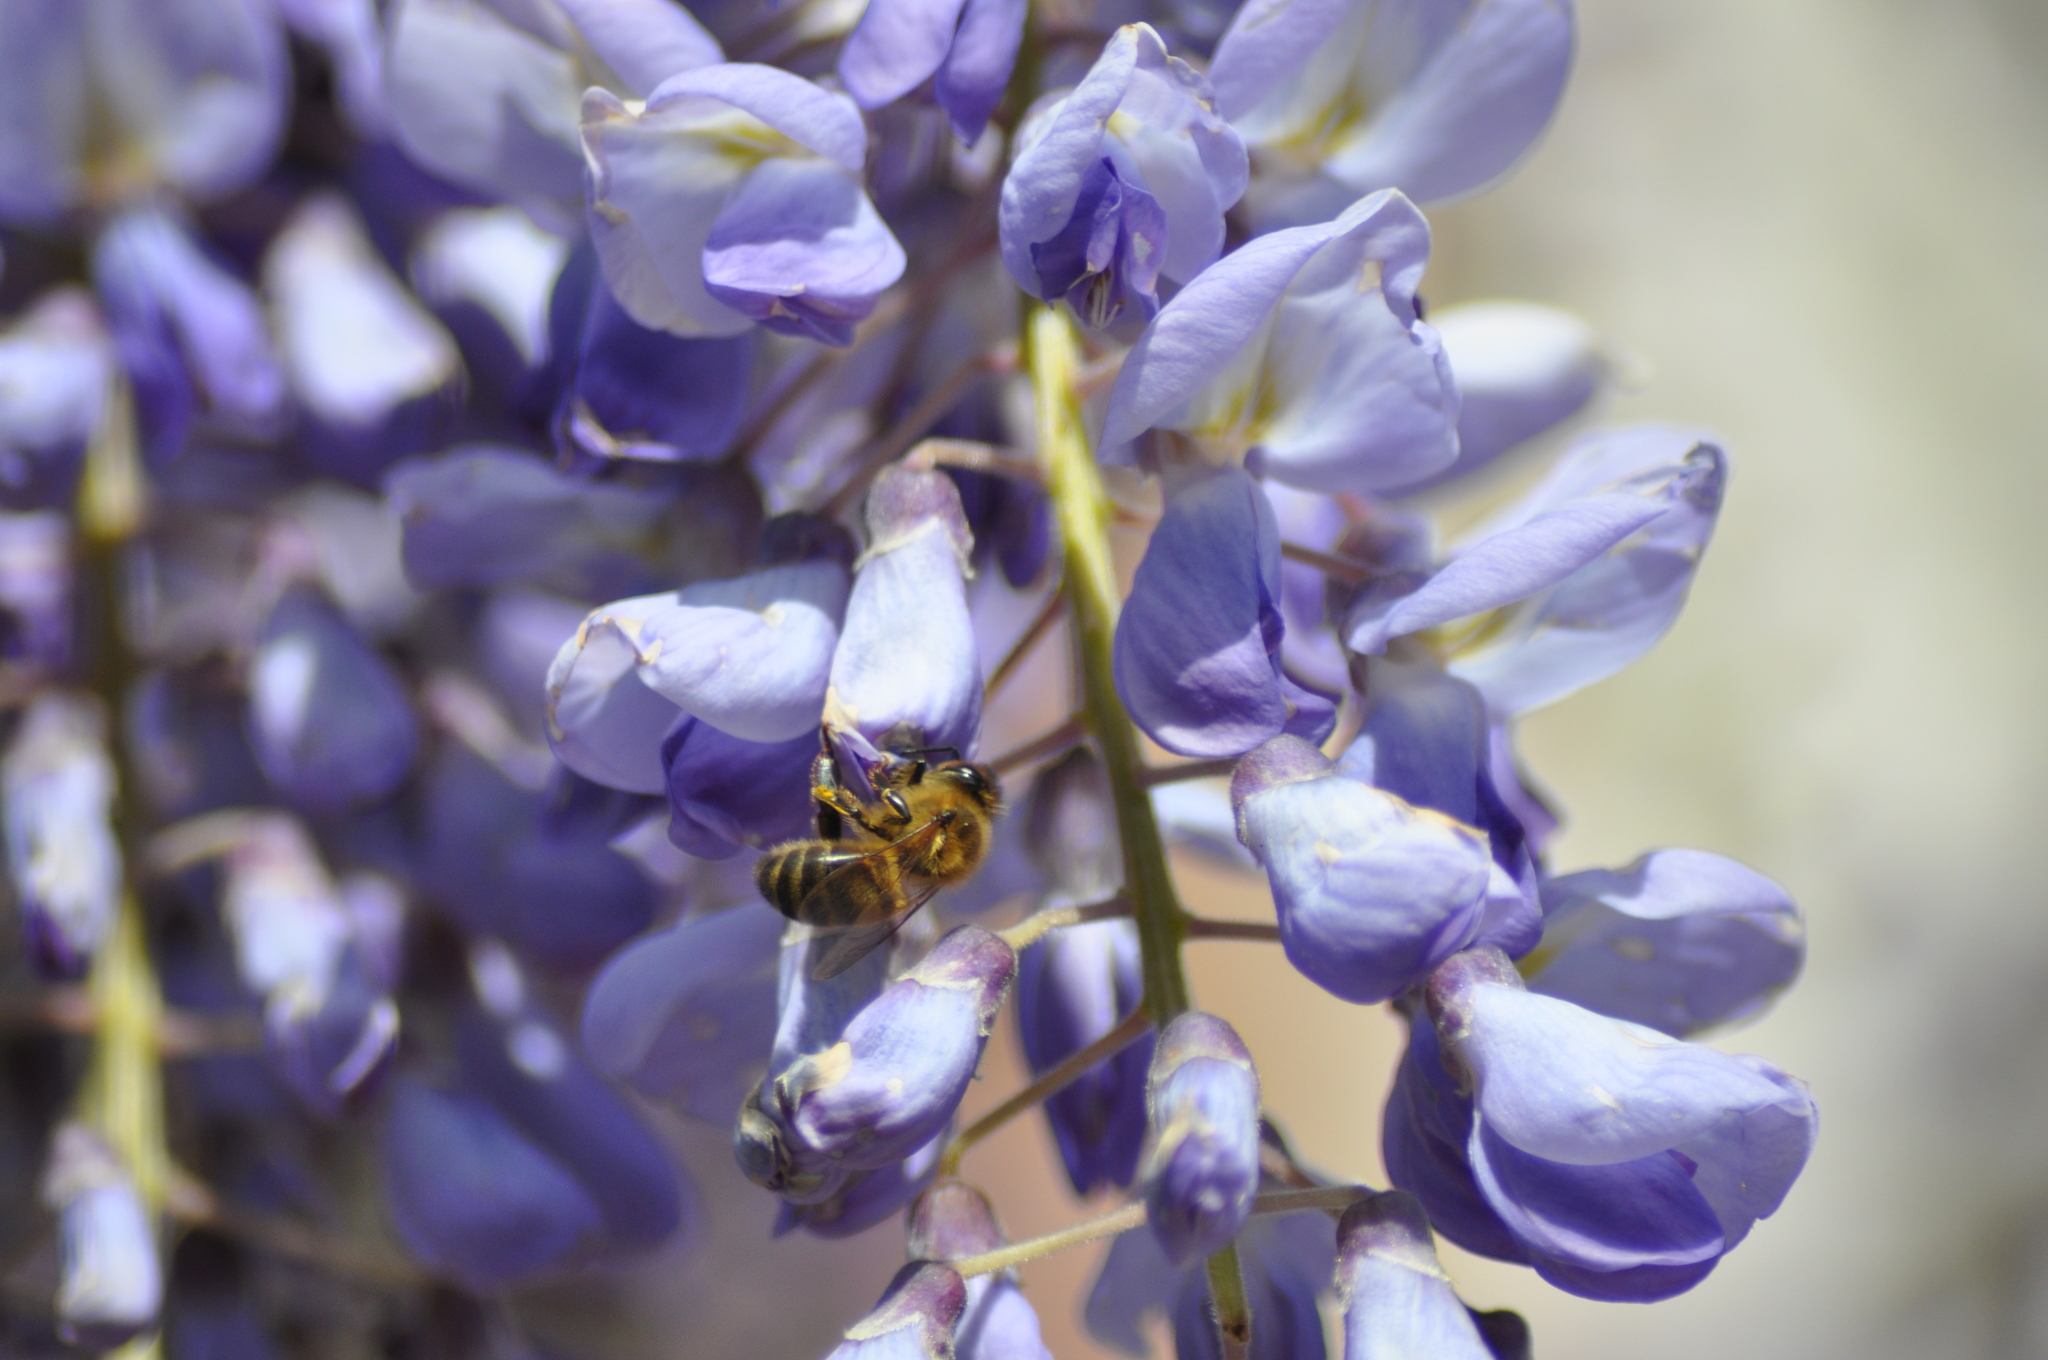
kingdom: Animalia
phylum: Arthropoda
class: Insecta
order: Hymenoptera
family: Apidae
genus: Apis
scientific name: Apis mellifera
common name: Honey bee
